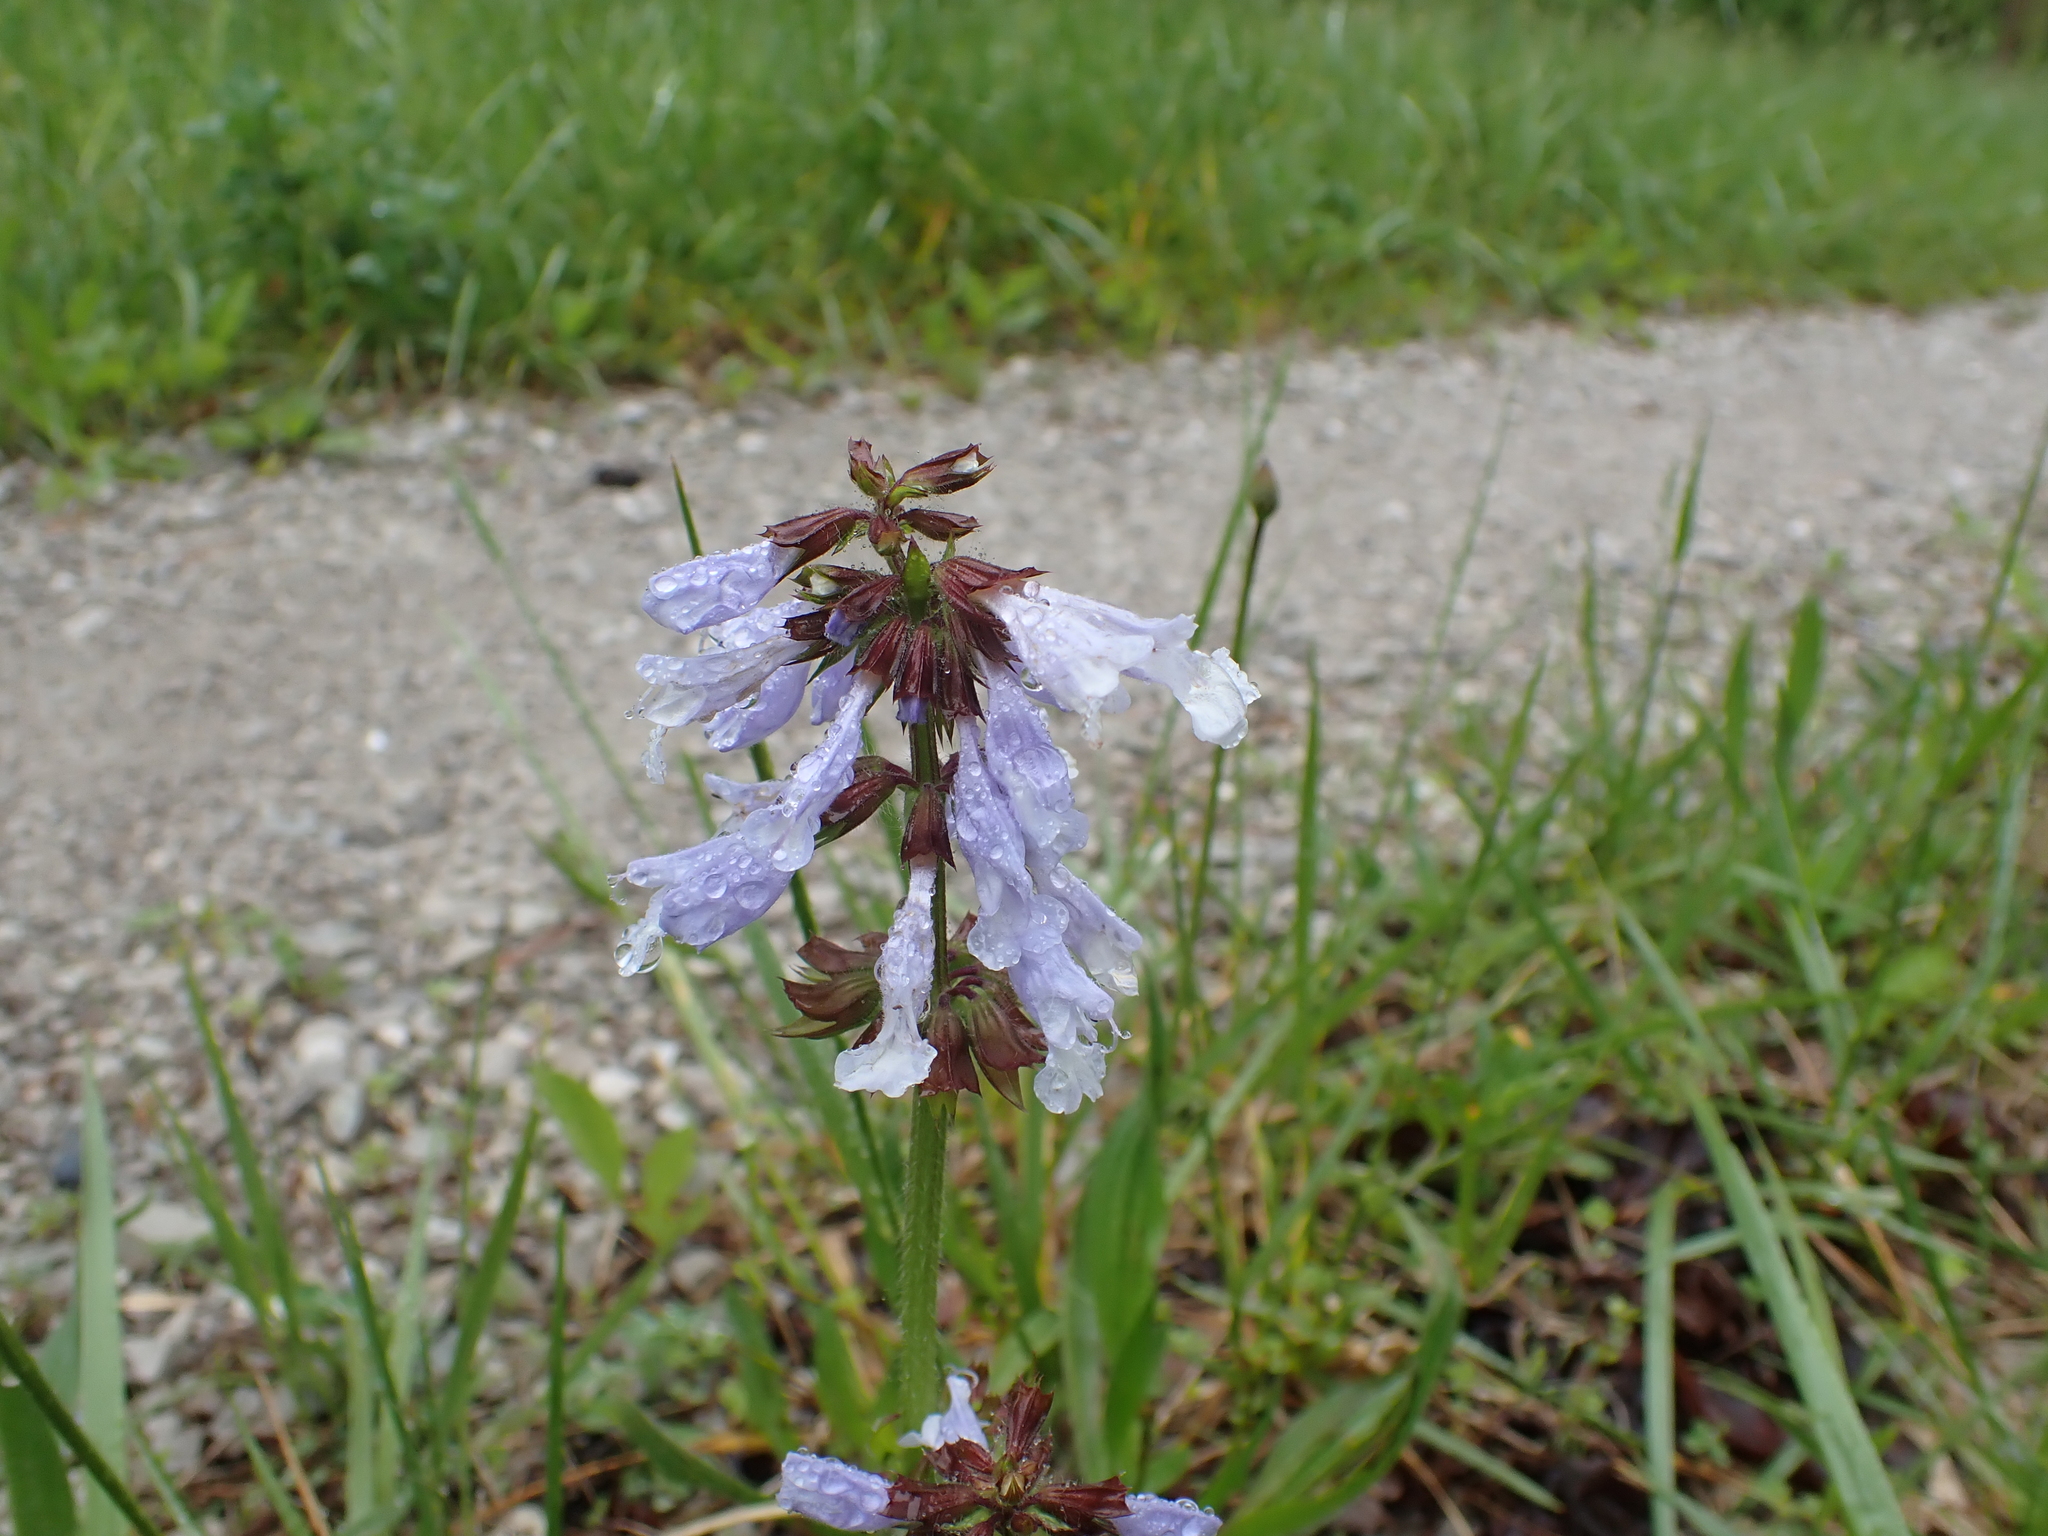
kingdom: Plantae
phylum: Tracheophyta
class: Magnoliopsida
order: Lamiales
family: Lamiaceae
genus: Salvia
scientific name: Salvia lyrata
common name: Cancerweed
